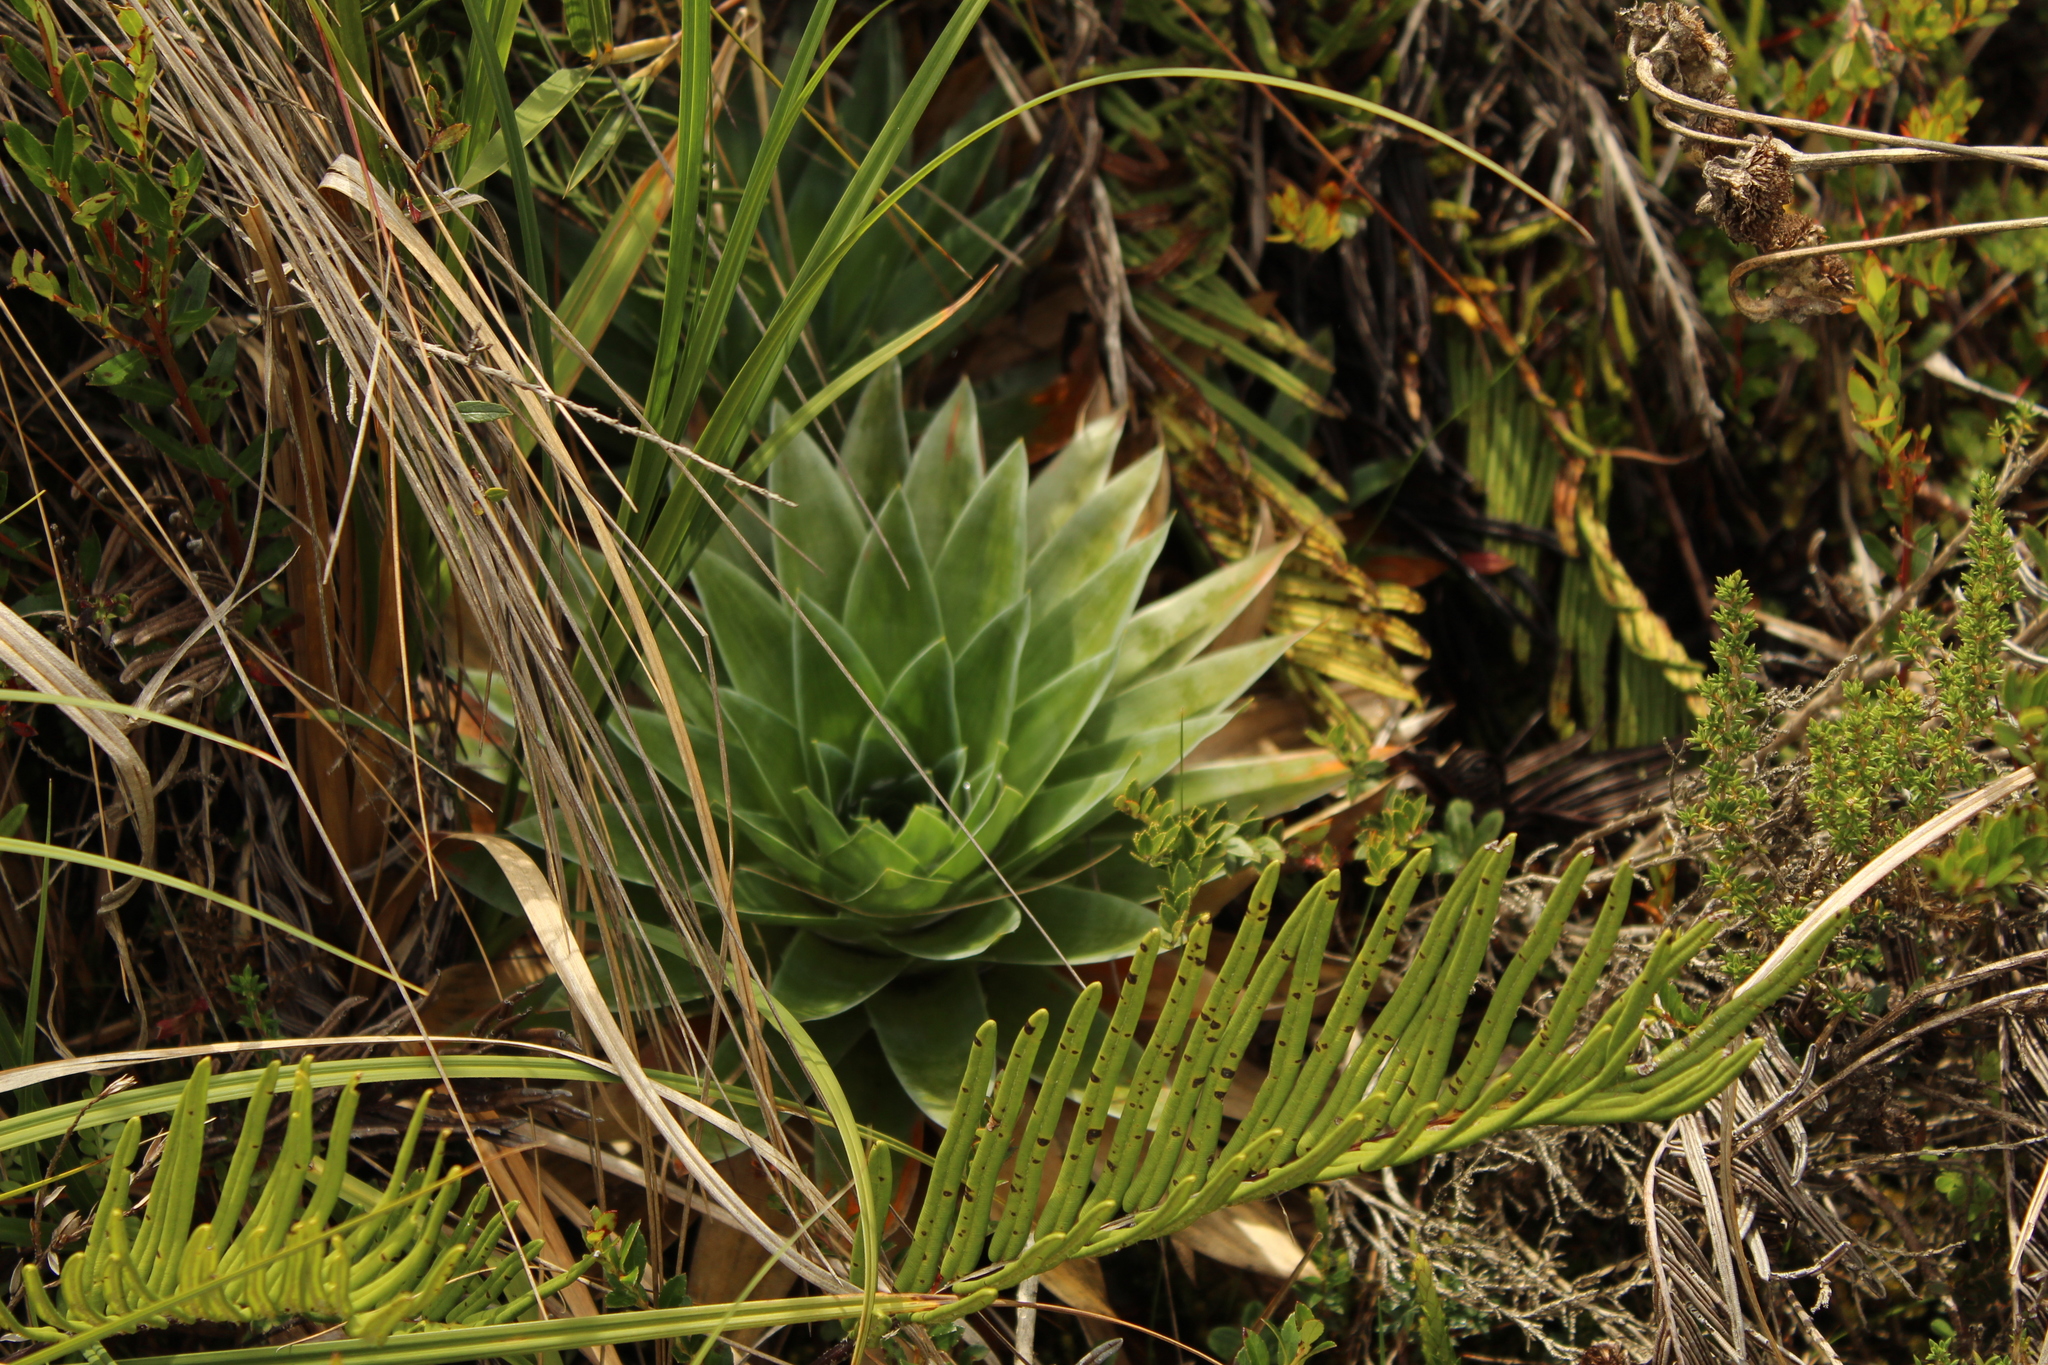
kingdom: Plantae
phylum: Tracheophyta
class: Liliopsida
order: Poales
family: Eriocaulaceae
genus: Paepalanthus
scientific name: Paepalanthus alpinus
